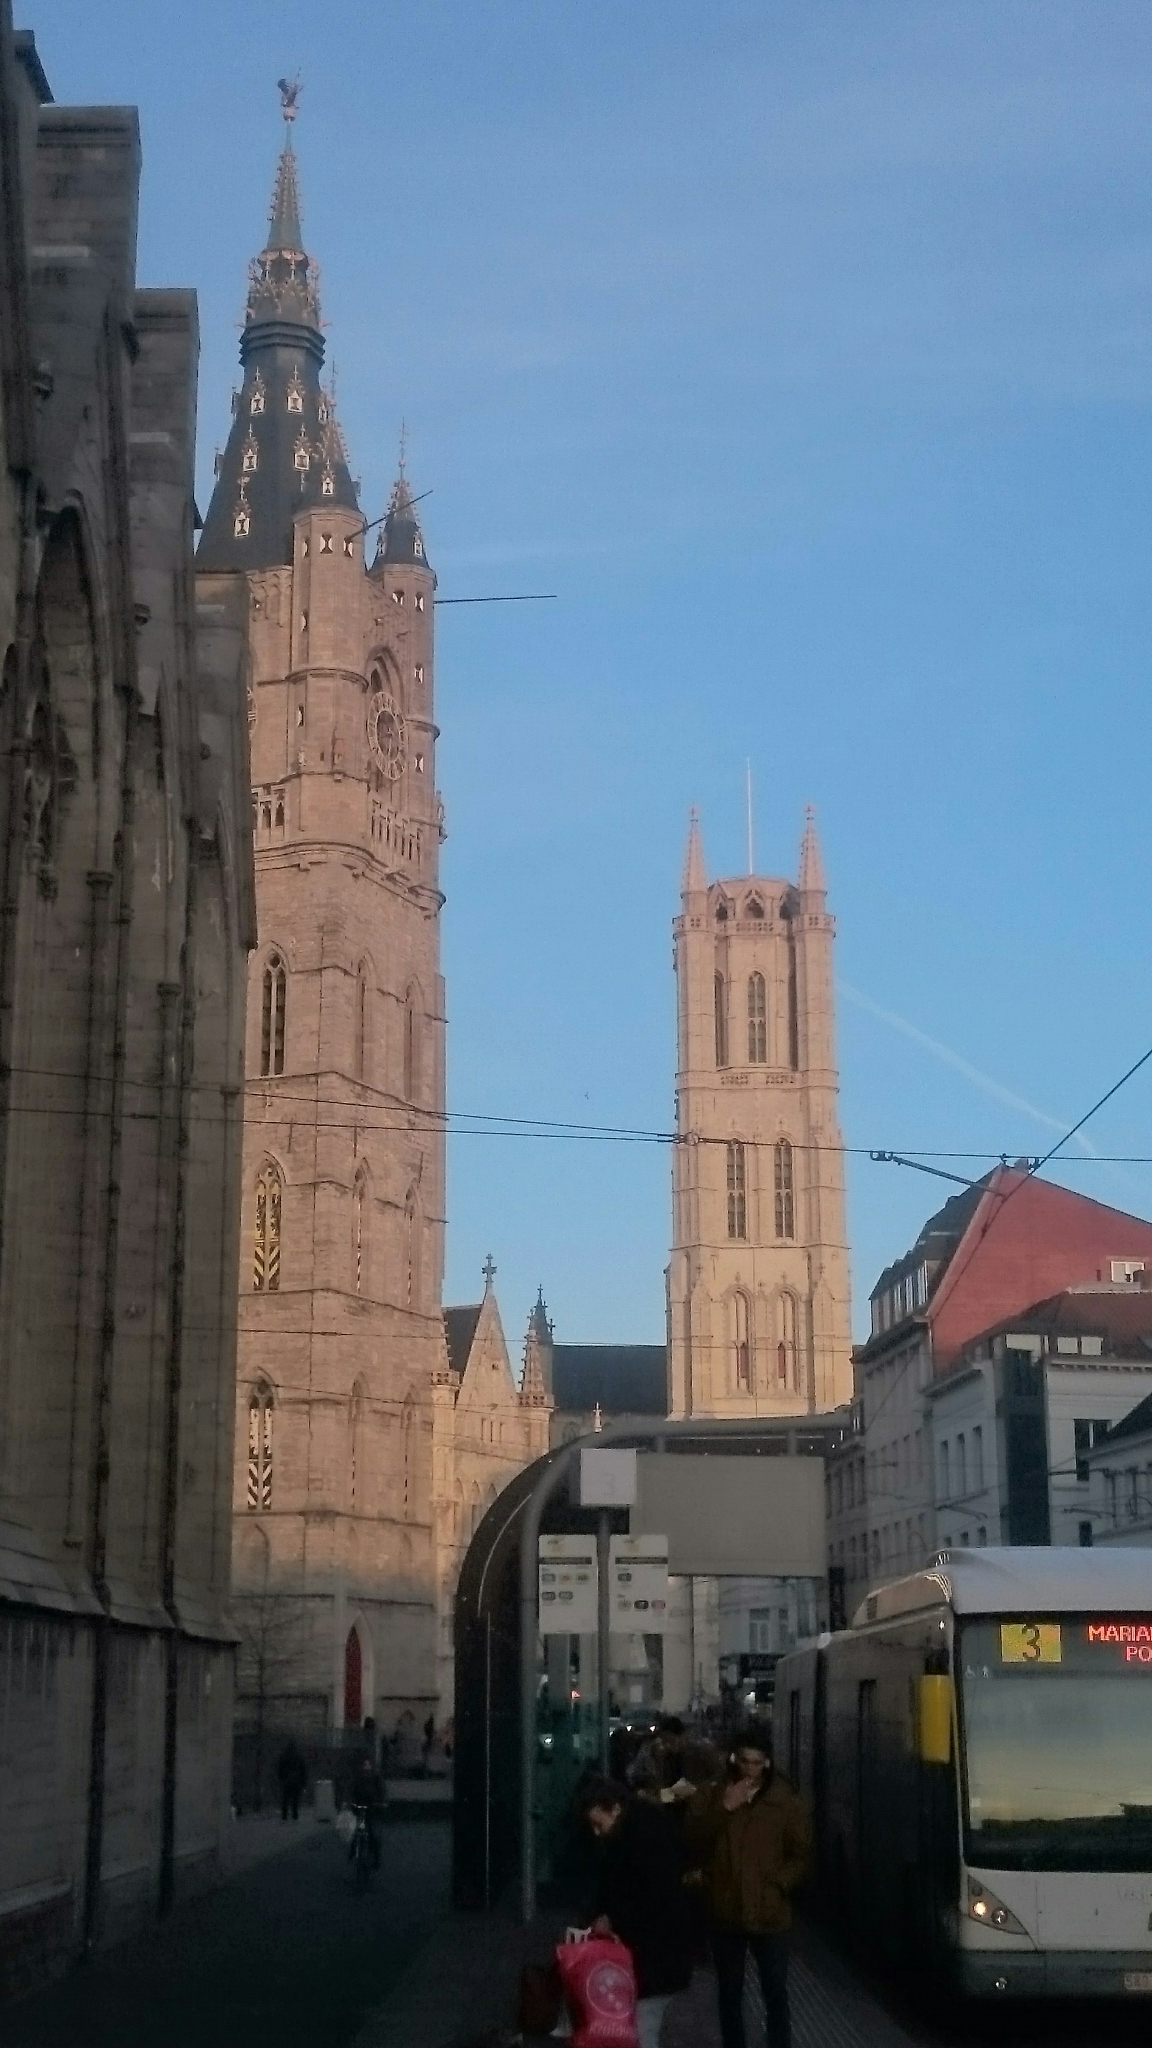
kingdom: Animalia
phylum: Chordata
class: Aves
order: Falconiformes
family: Falconidae
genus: Falco
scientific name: Falco peregrinus
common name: Peregrine falcon
